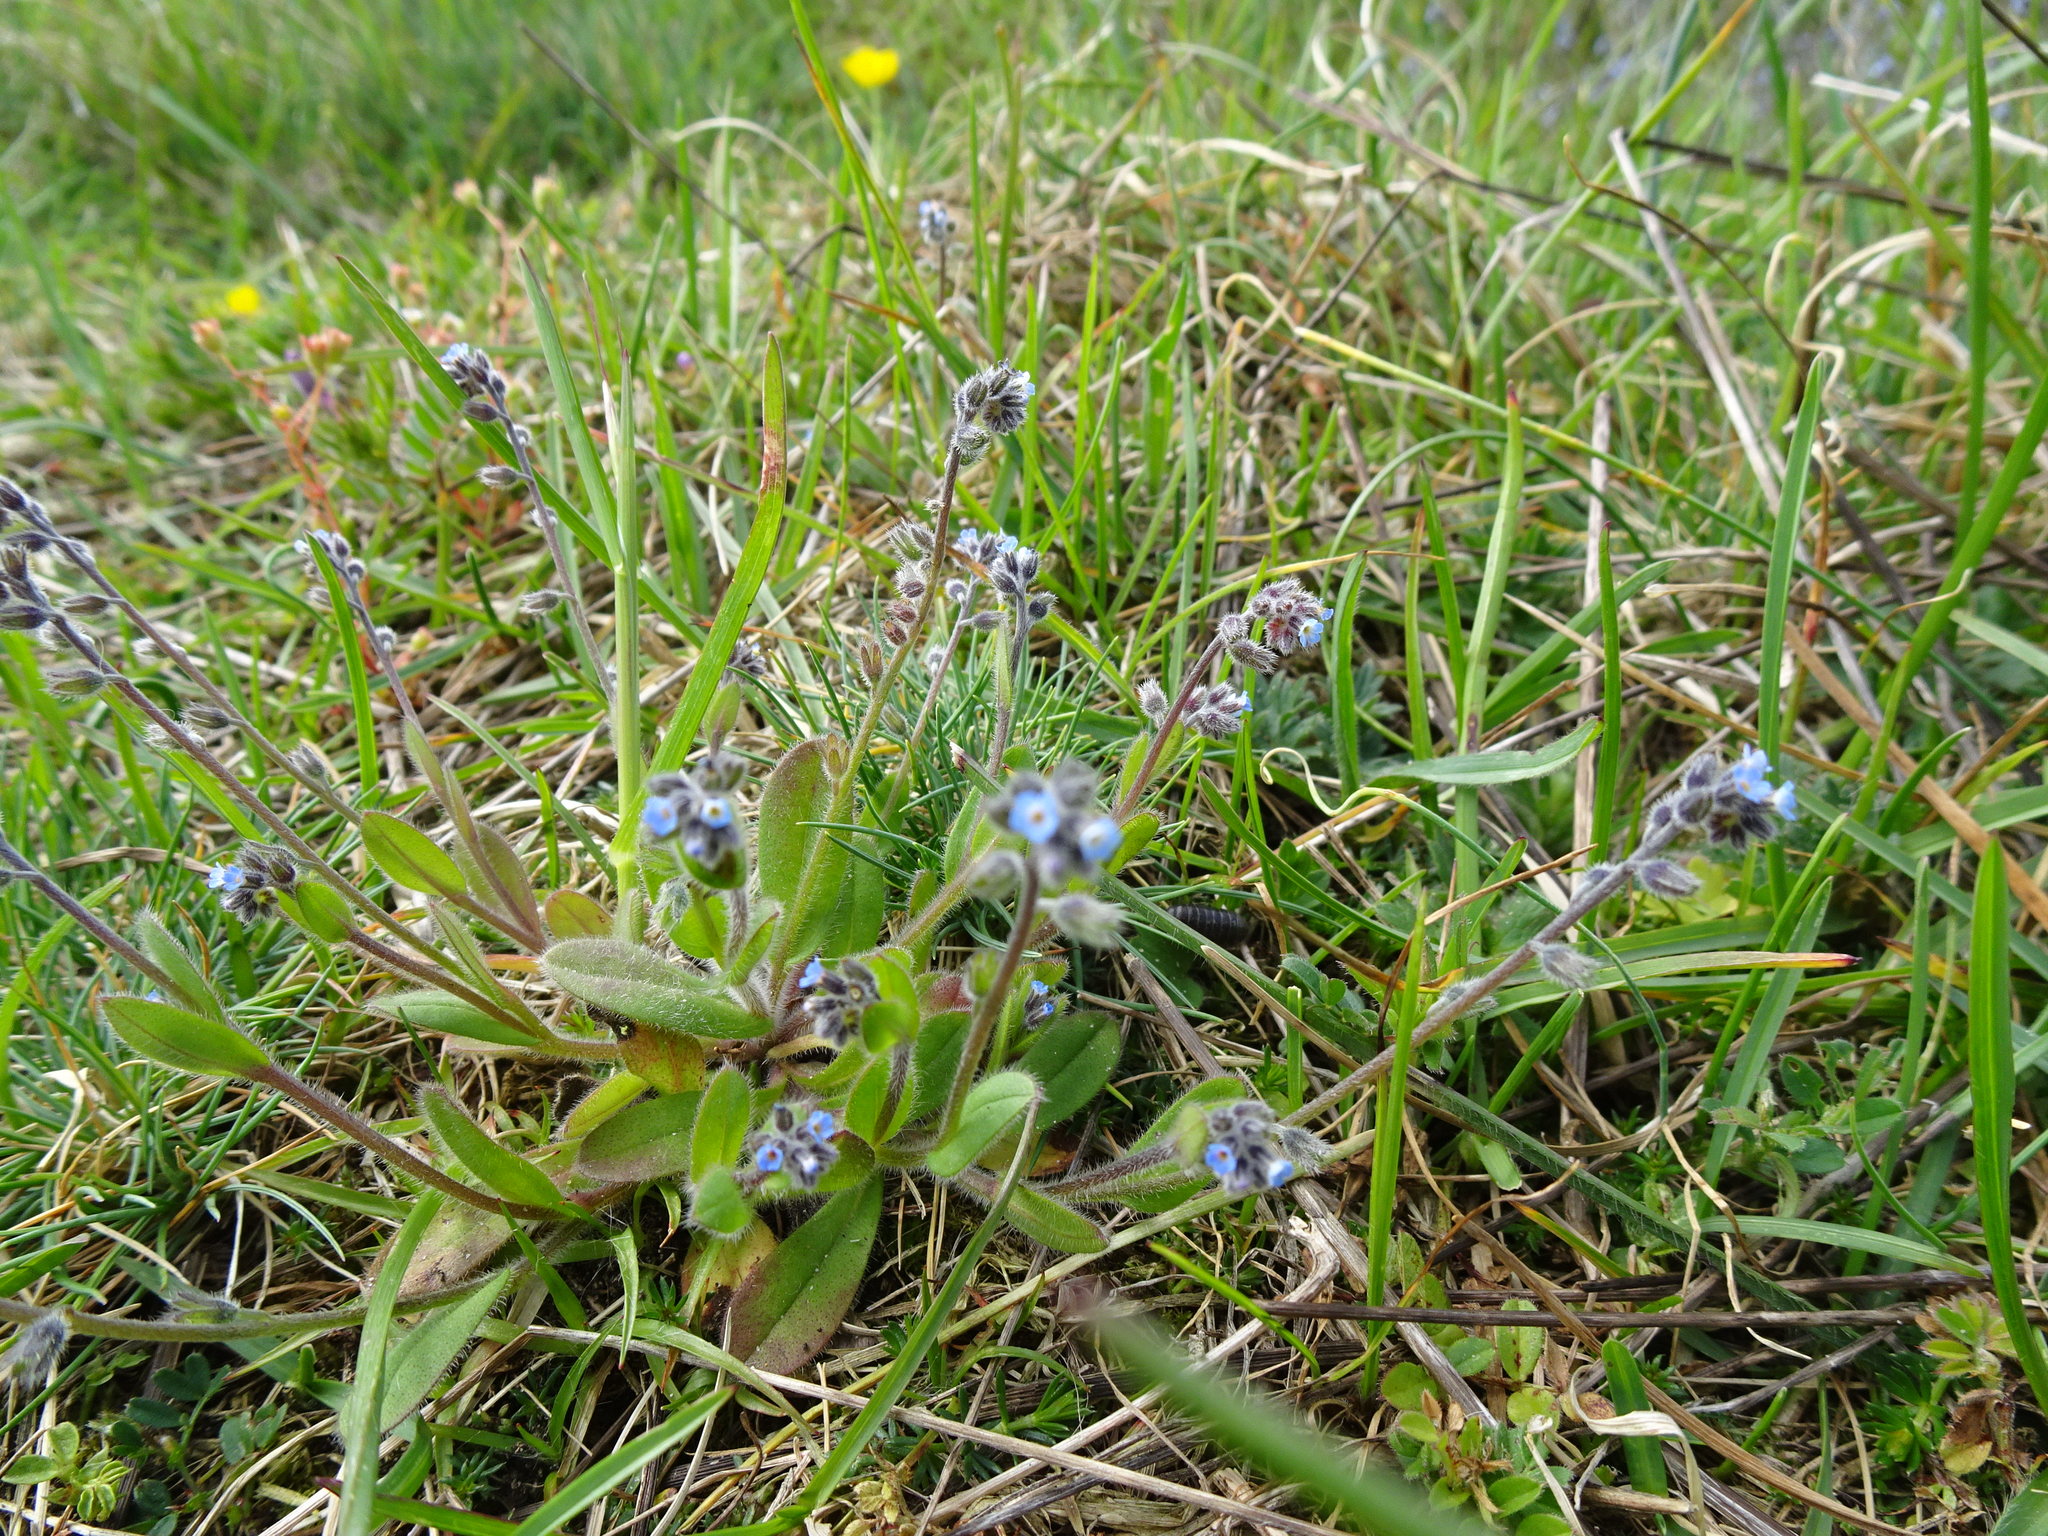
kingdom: Plantae
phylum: Tracheophyta
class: Magnoliopsida
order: Boraginales
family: Boraginaceae
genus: Myosotis
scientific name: Myosotis ramosissima
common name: Early forget-me-not
